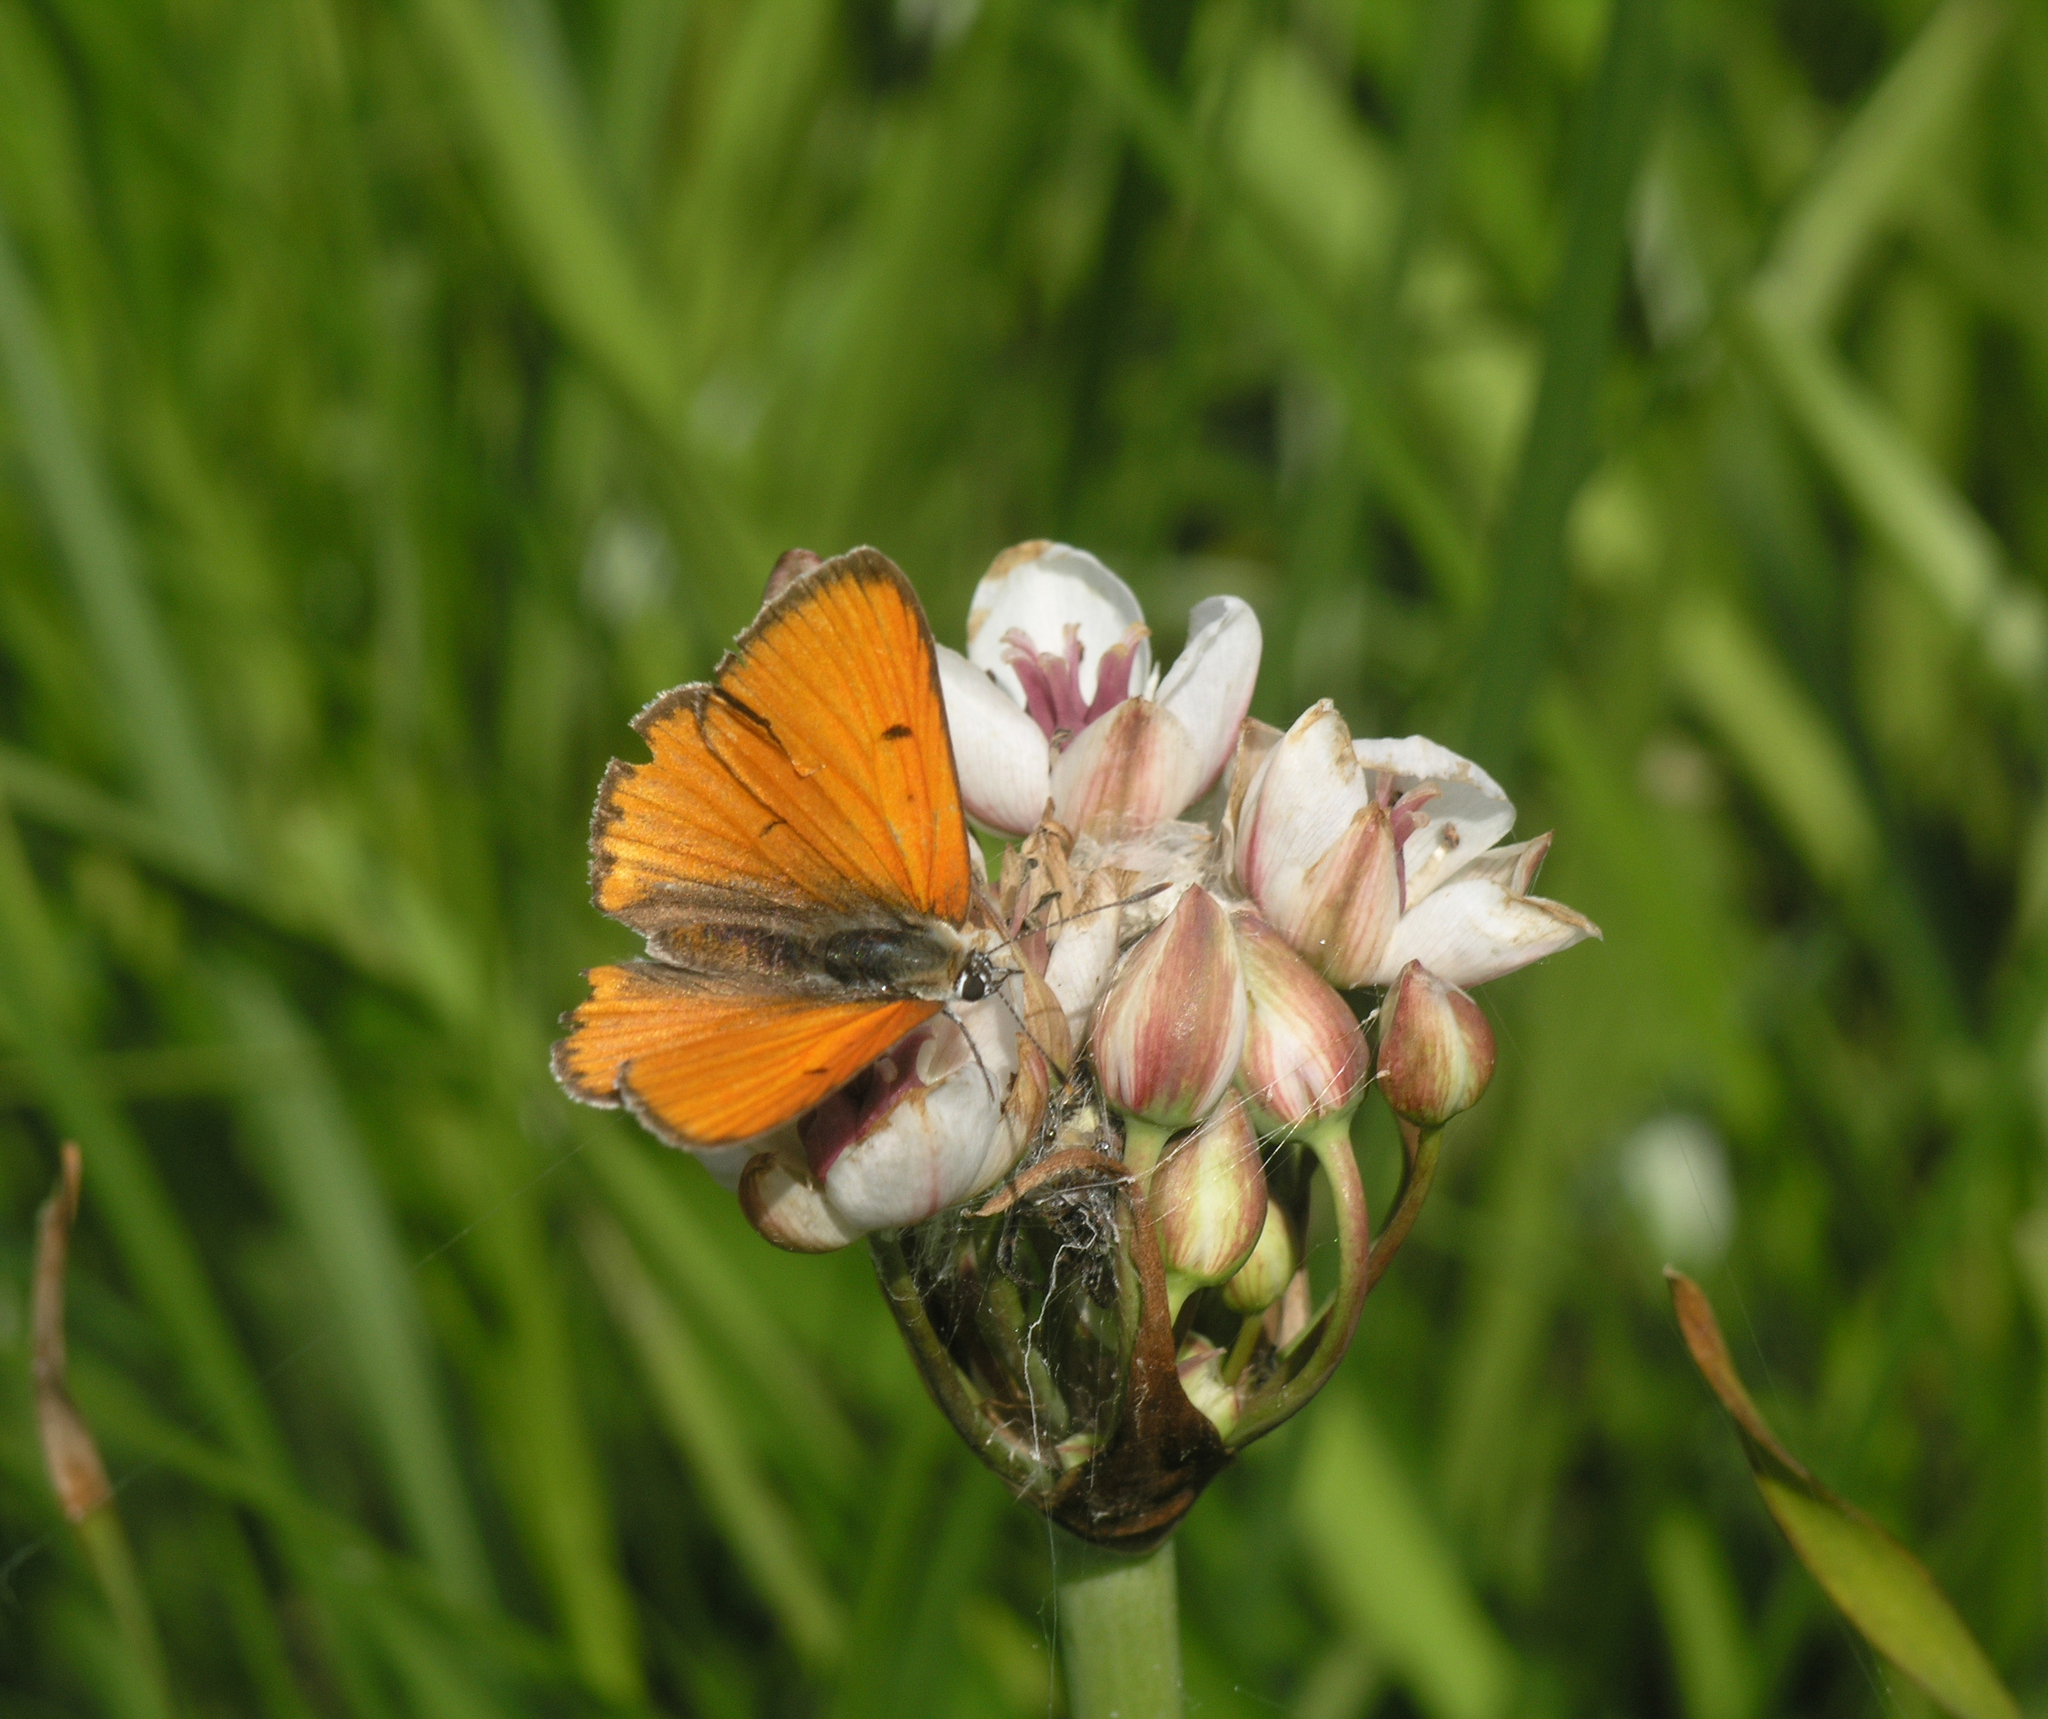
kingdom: Animalia
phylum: Arthropoda
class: Insecta
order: Lepidoptera
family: Lycaenidae
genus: Lycaena
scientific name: Lycaena dispar
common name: Large copper
